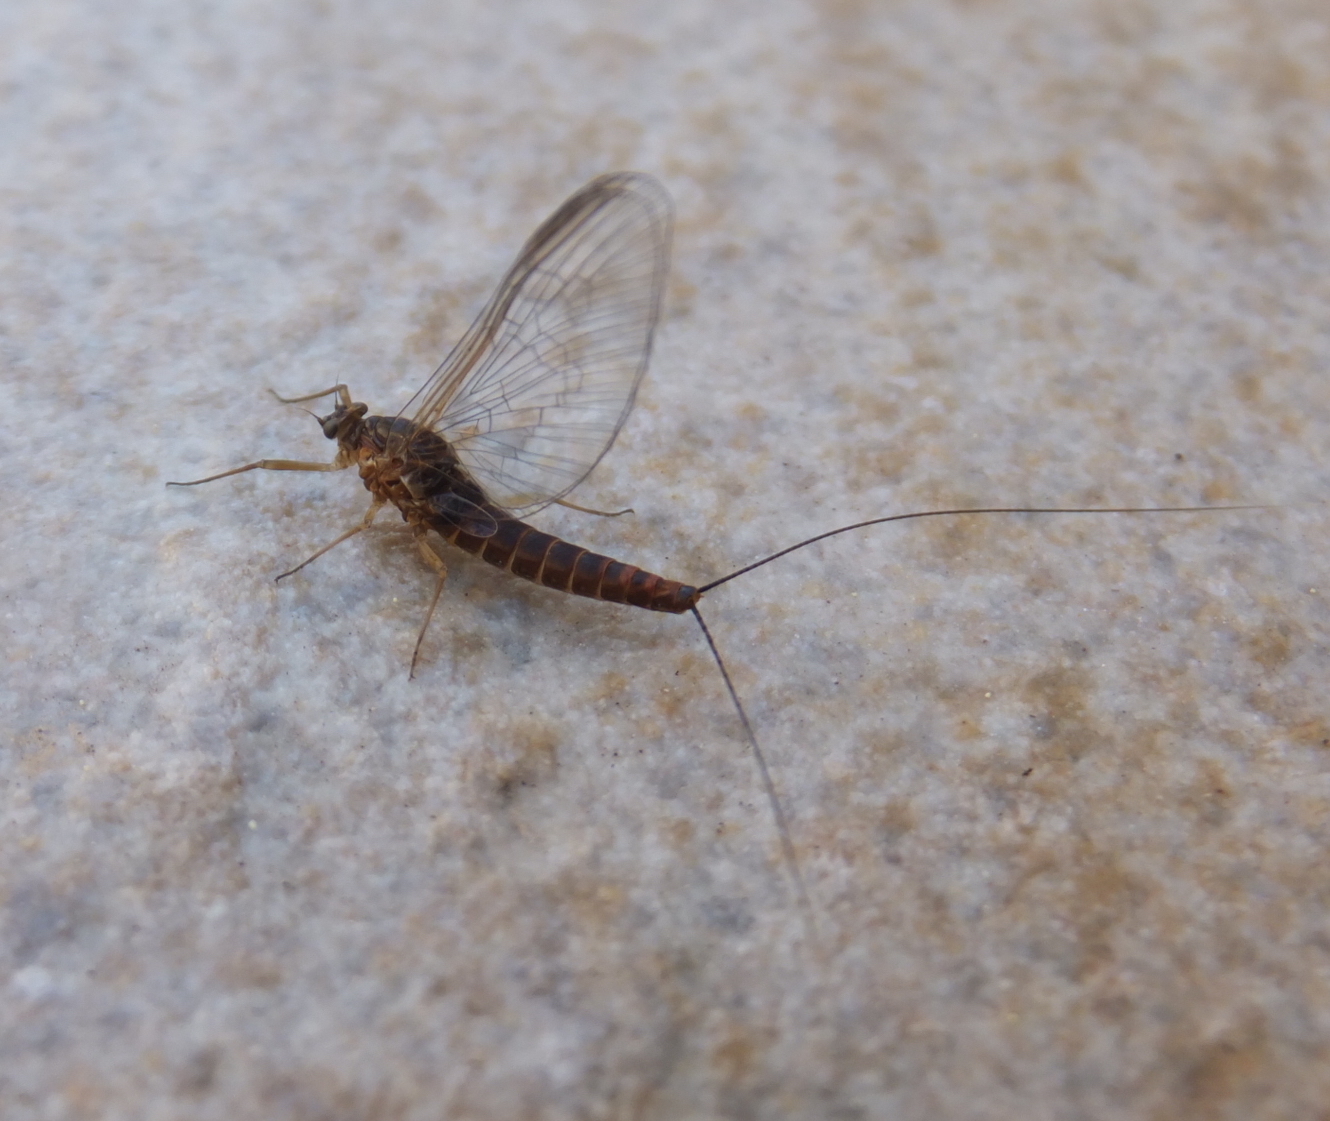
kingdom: Animalia
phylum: Arthropoda
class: Insecta
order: Ephemeroptera
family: Baetidae
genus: Baetis
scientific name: Baetis rhodani
